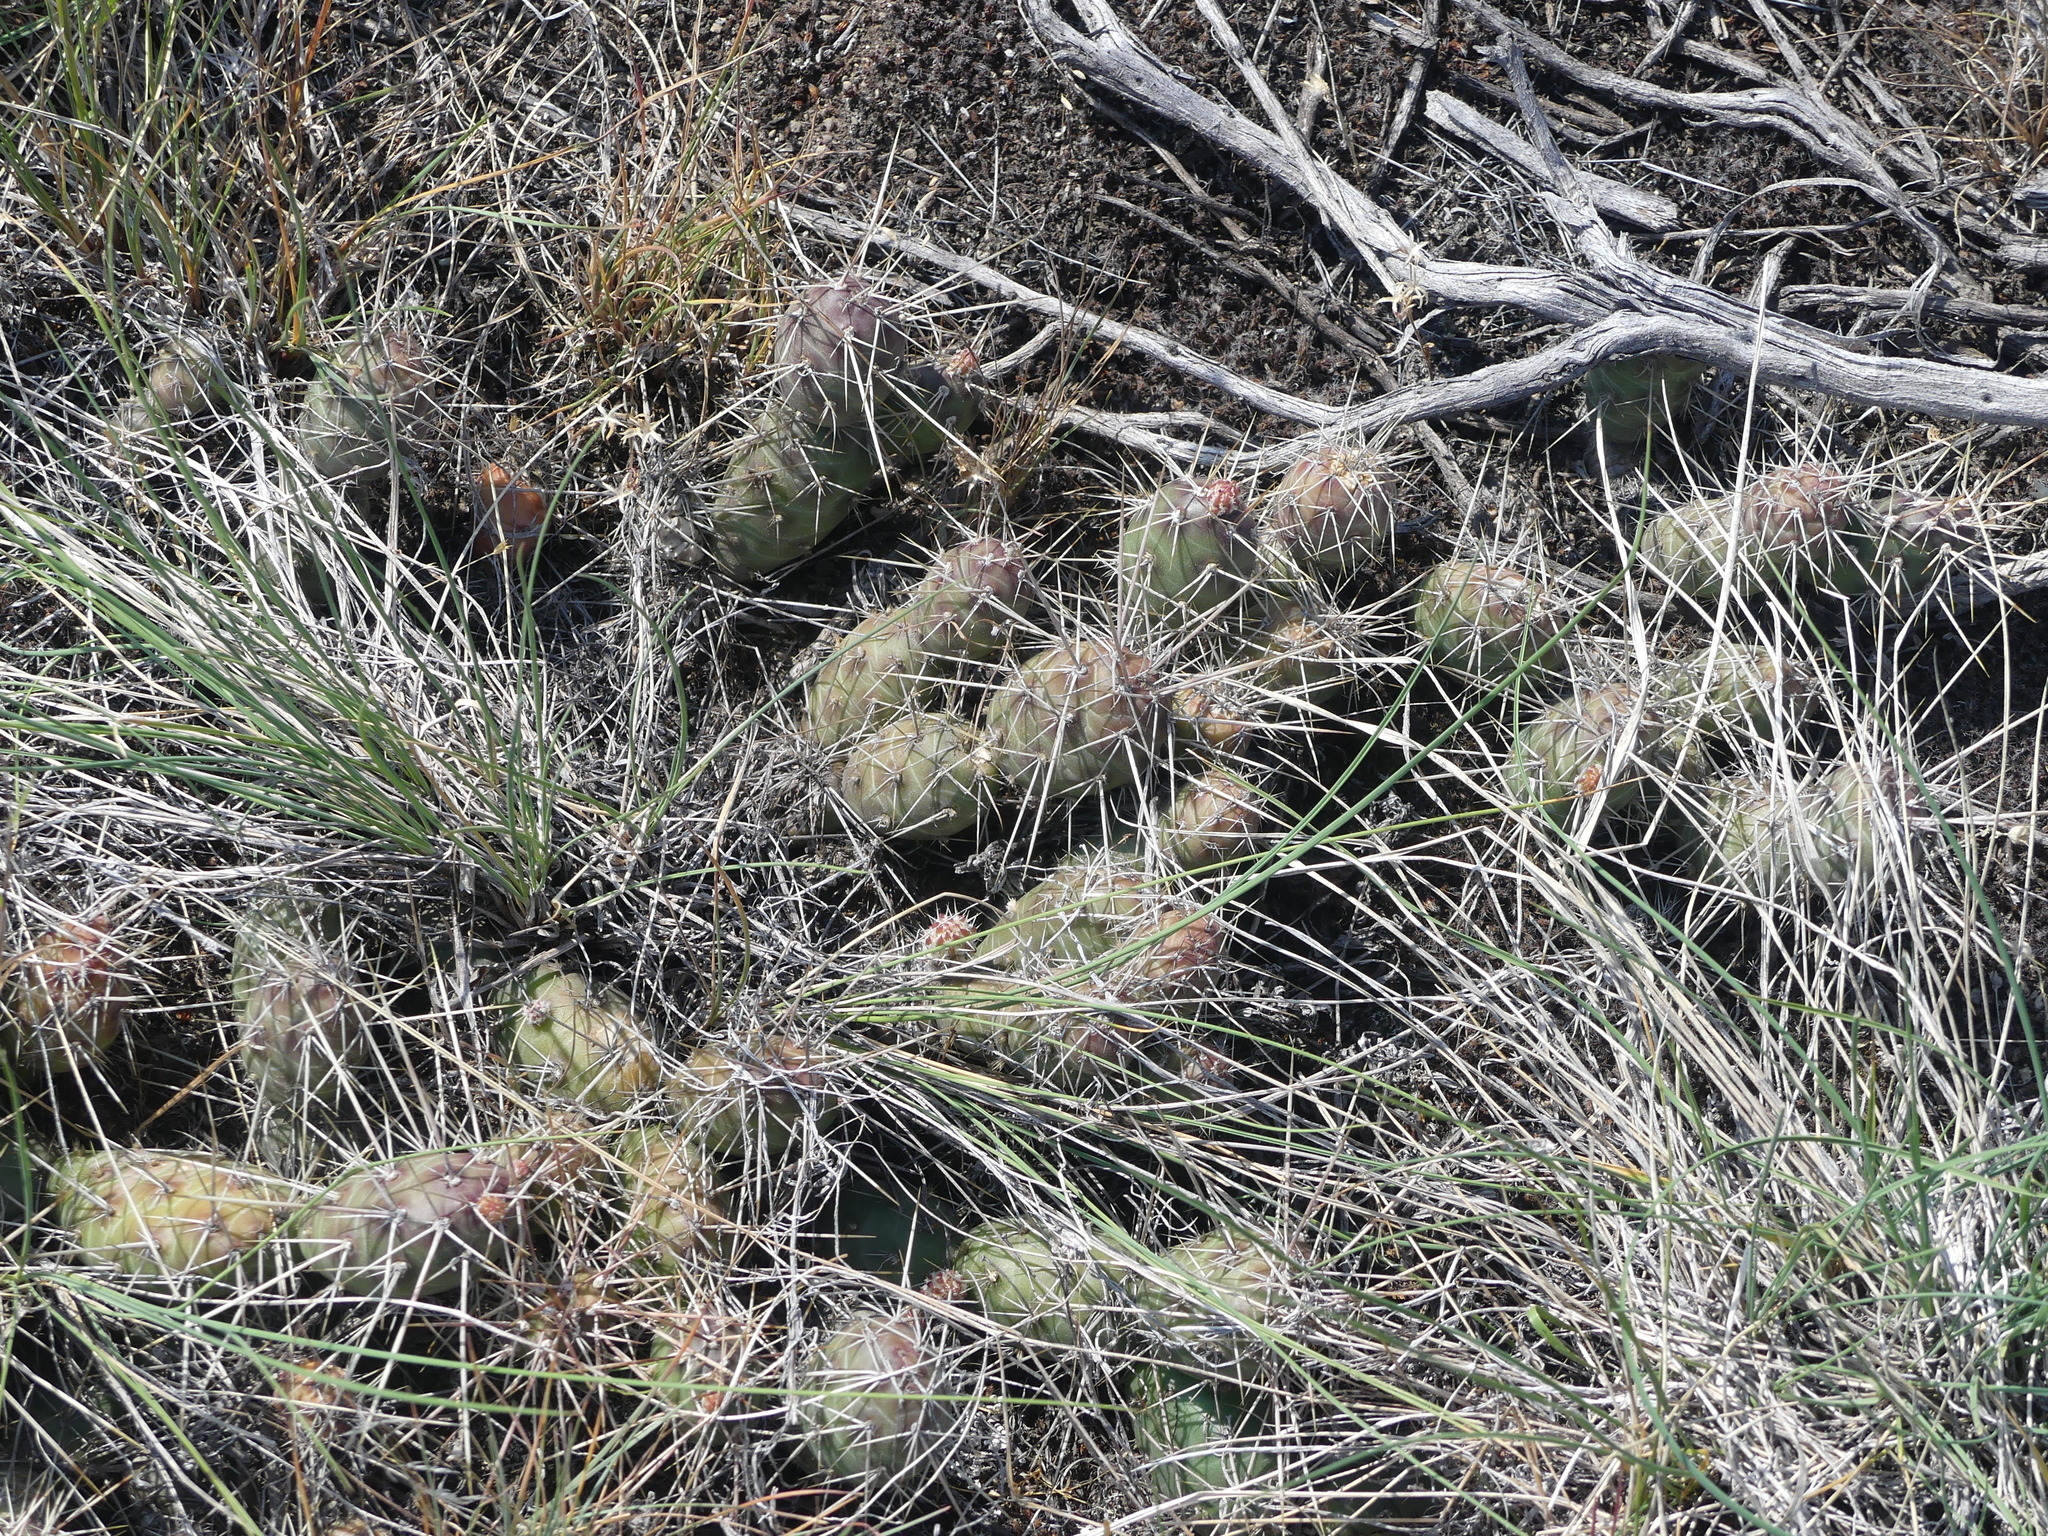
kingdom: Plantae
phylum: Tracheophyta
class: Magnoliopsida
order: Caryophyllales
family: Cactaceae
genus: Opuntia
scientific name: Opuntia fragilis
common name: Brittle cactus
